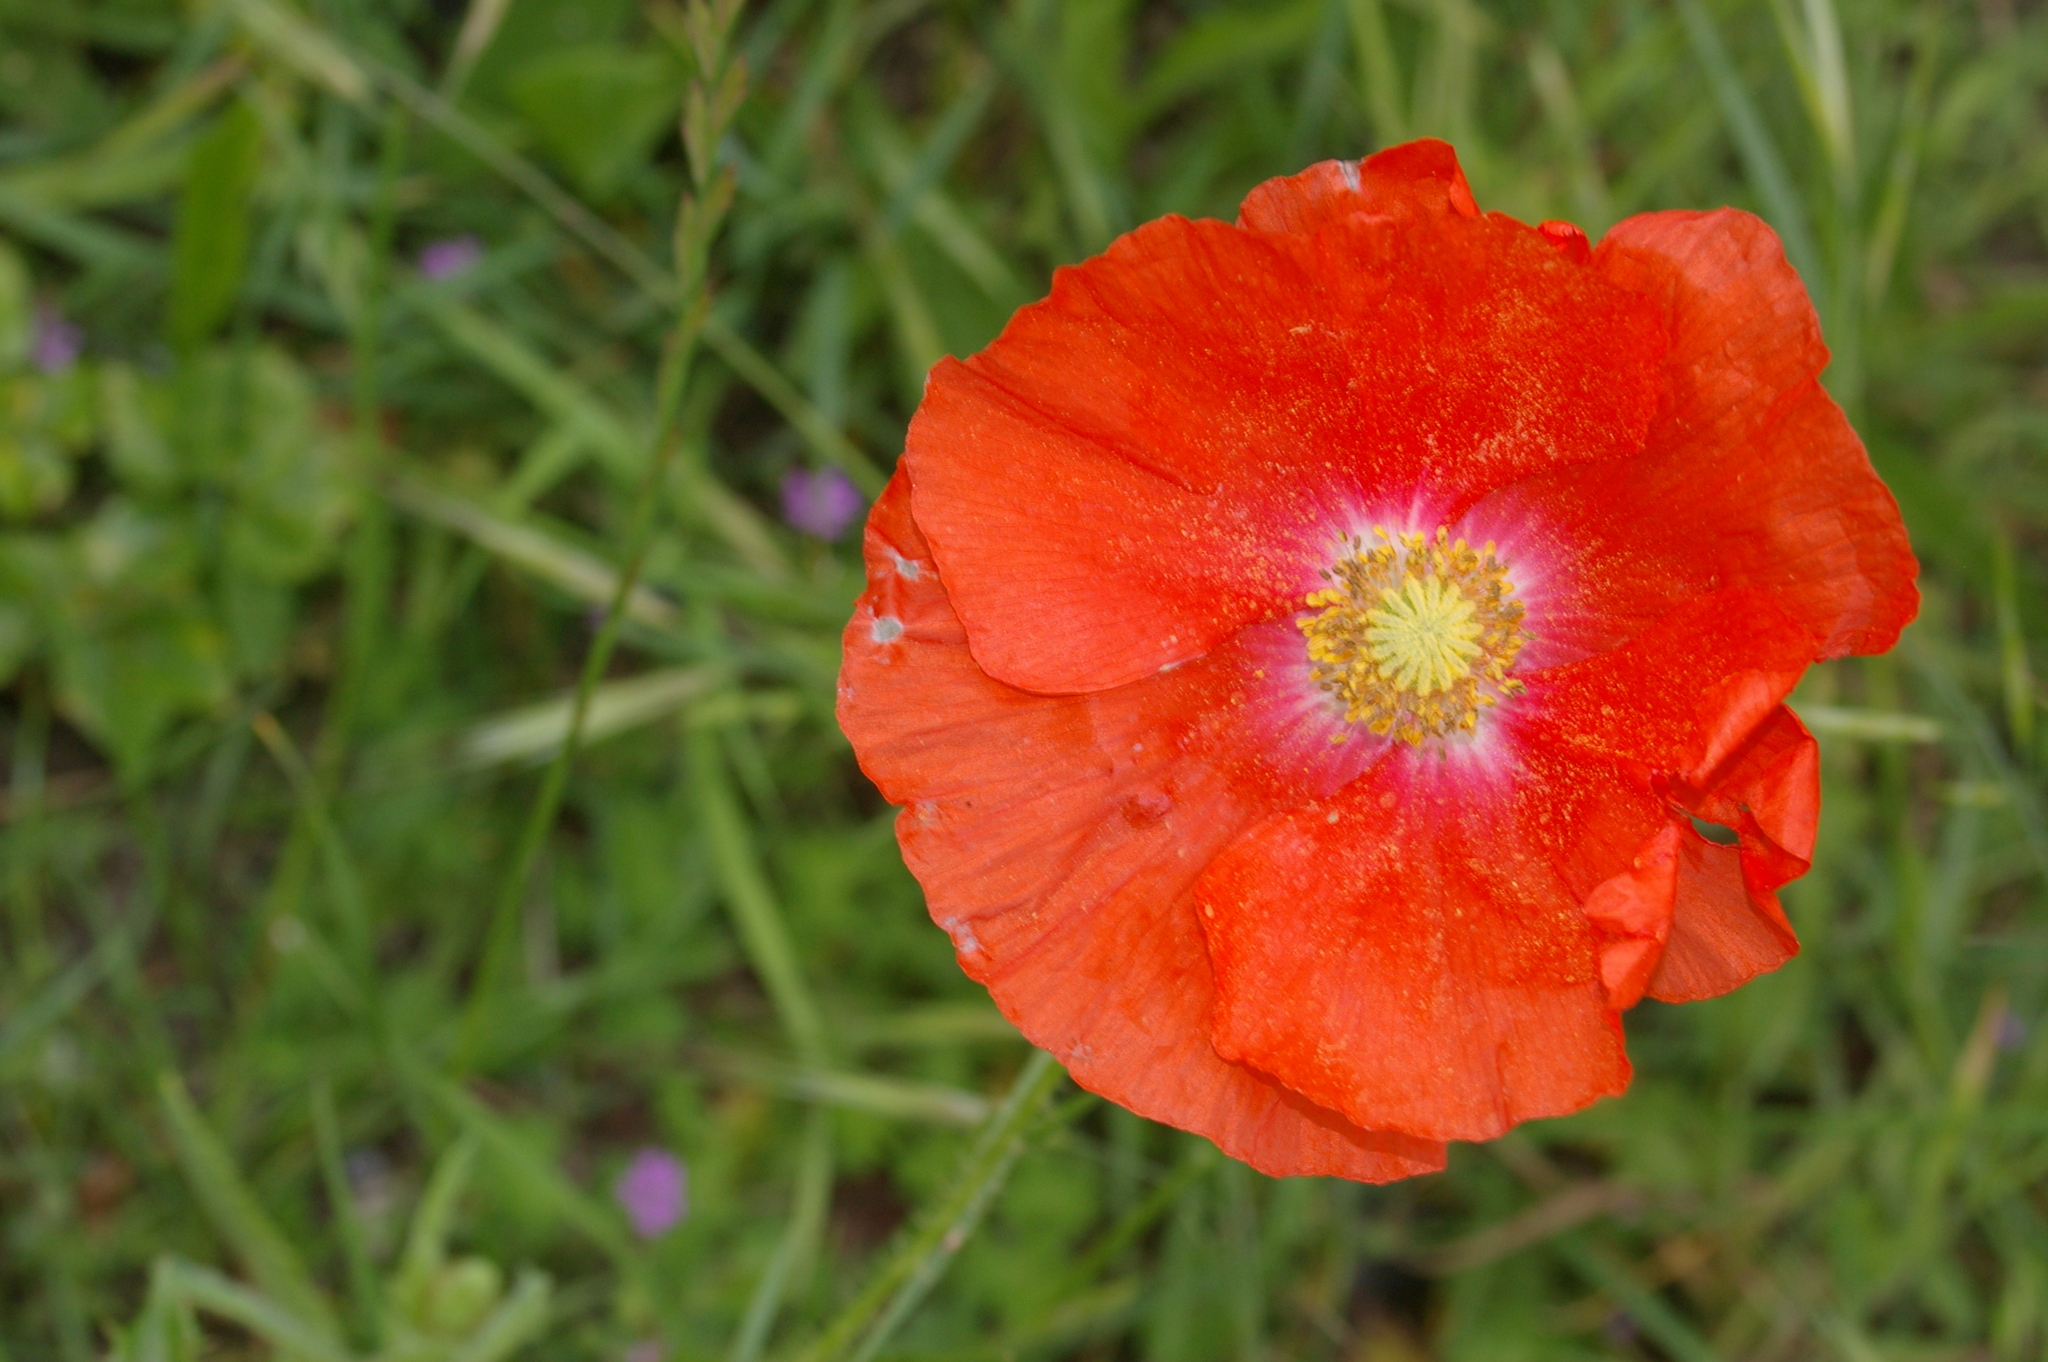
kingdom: Plantae
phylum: Tracheophyta
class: Magnoliopsida
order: Ranunculales
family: Papaveraceae
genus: Papaver
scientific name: Papaver rhoeas
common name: Corn poppy
